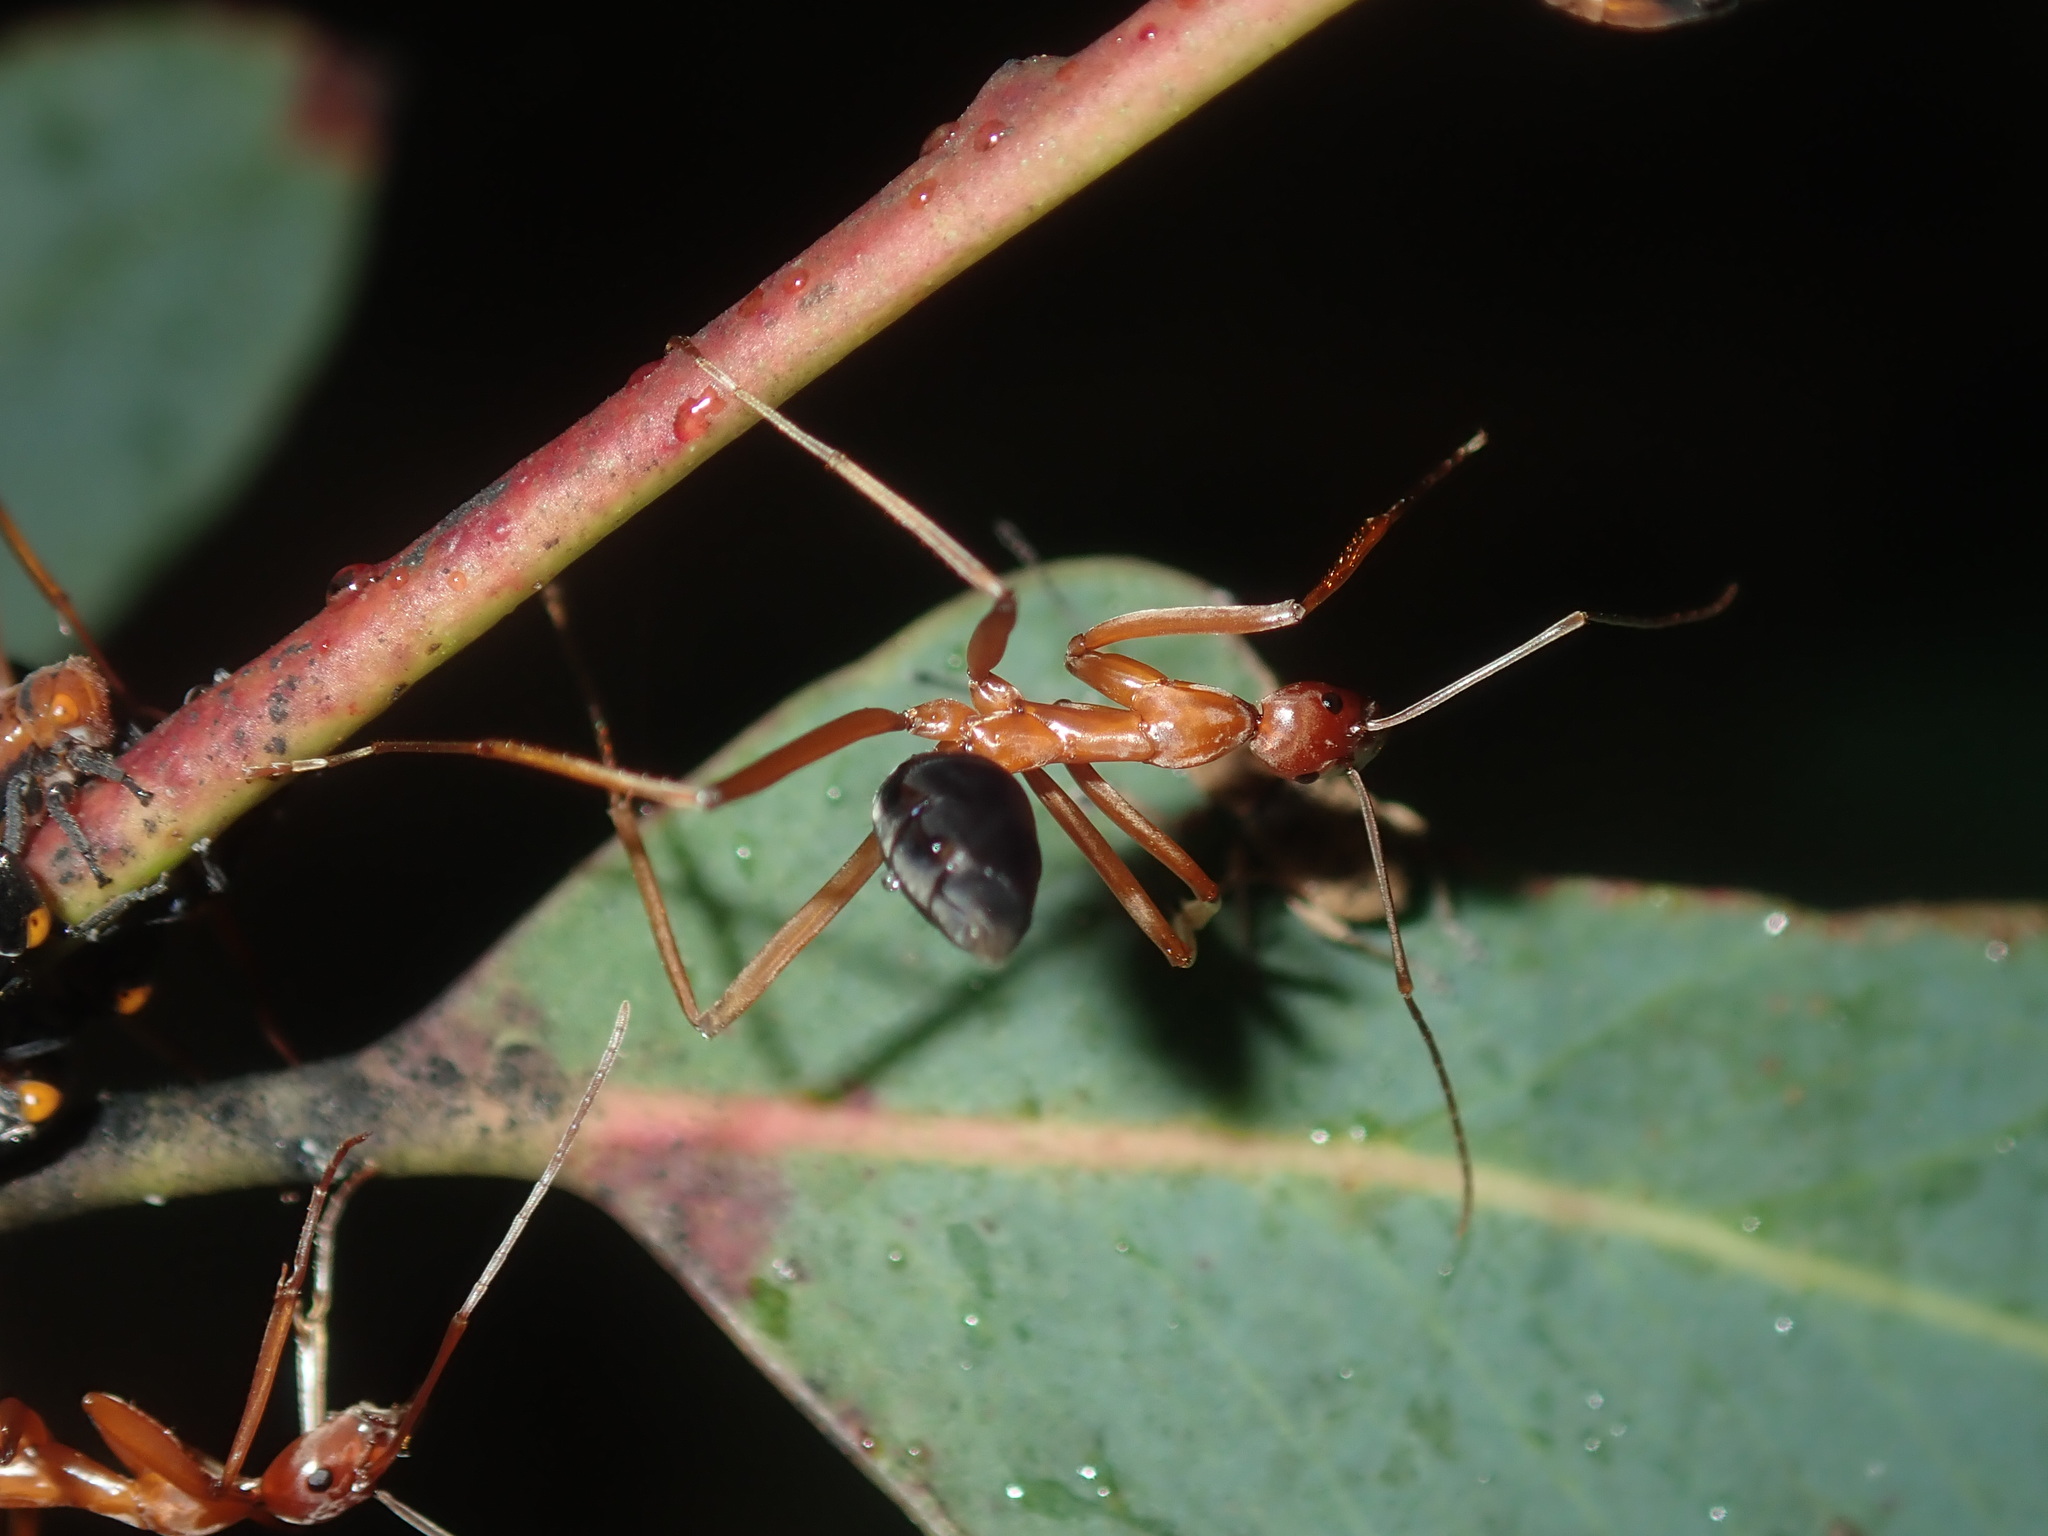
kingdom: Animalia
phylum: Arthropoda
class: Insecta
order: Hymenoptera
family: Formicidae
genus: Leptomyrmex
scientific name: Leptomyrmex nigriventris
